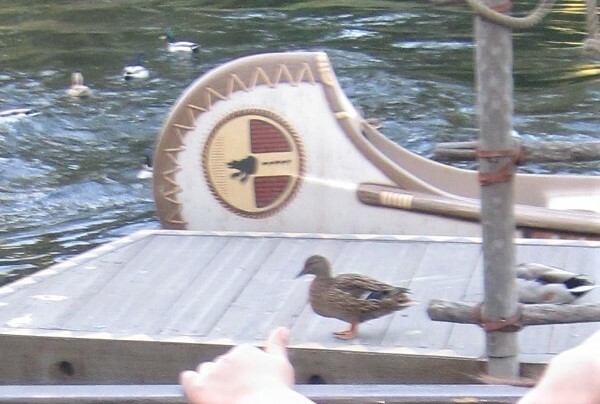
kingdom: Animalia
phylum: Chordata
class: Aves
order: Anseriformes
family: Anatidae
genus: Anas
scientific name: Anas platyrhynchos
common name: Mallard
